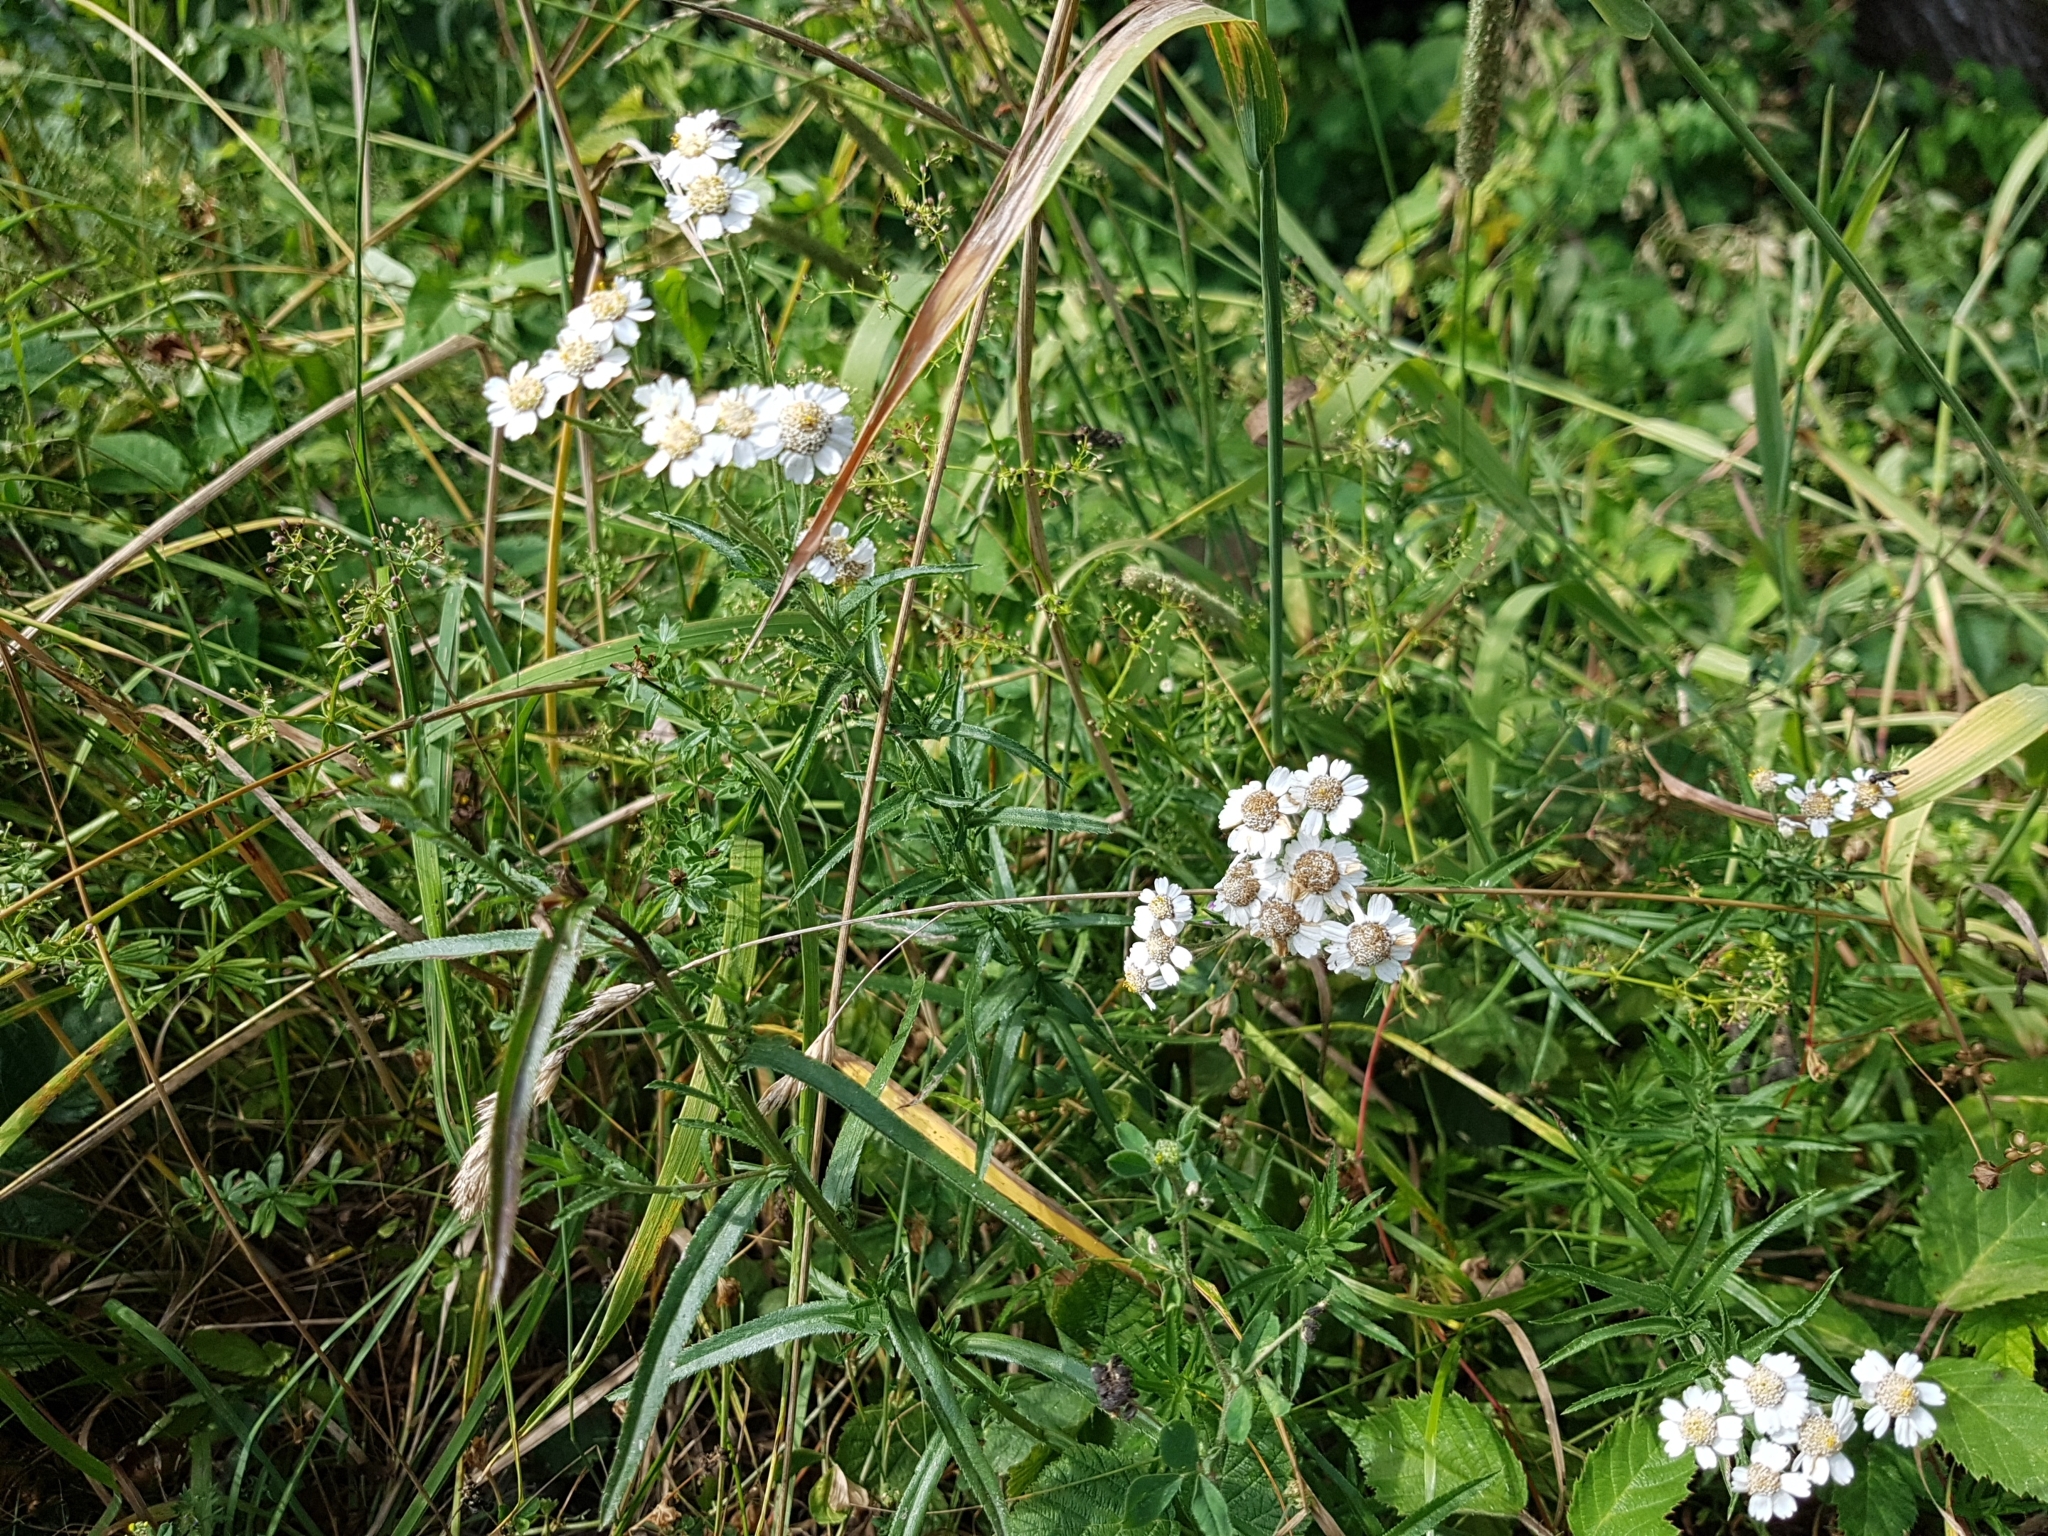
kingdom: Plantae
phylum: Tracheophyta
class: Magnoliopsida
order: Asterales
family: Asteraceae
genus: Achillea
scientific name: Achillea ptarmica
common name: Sneezeweed
